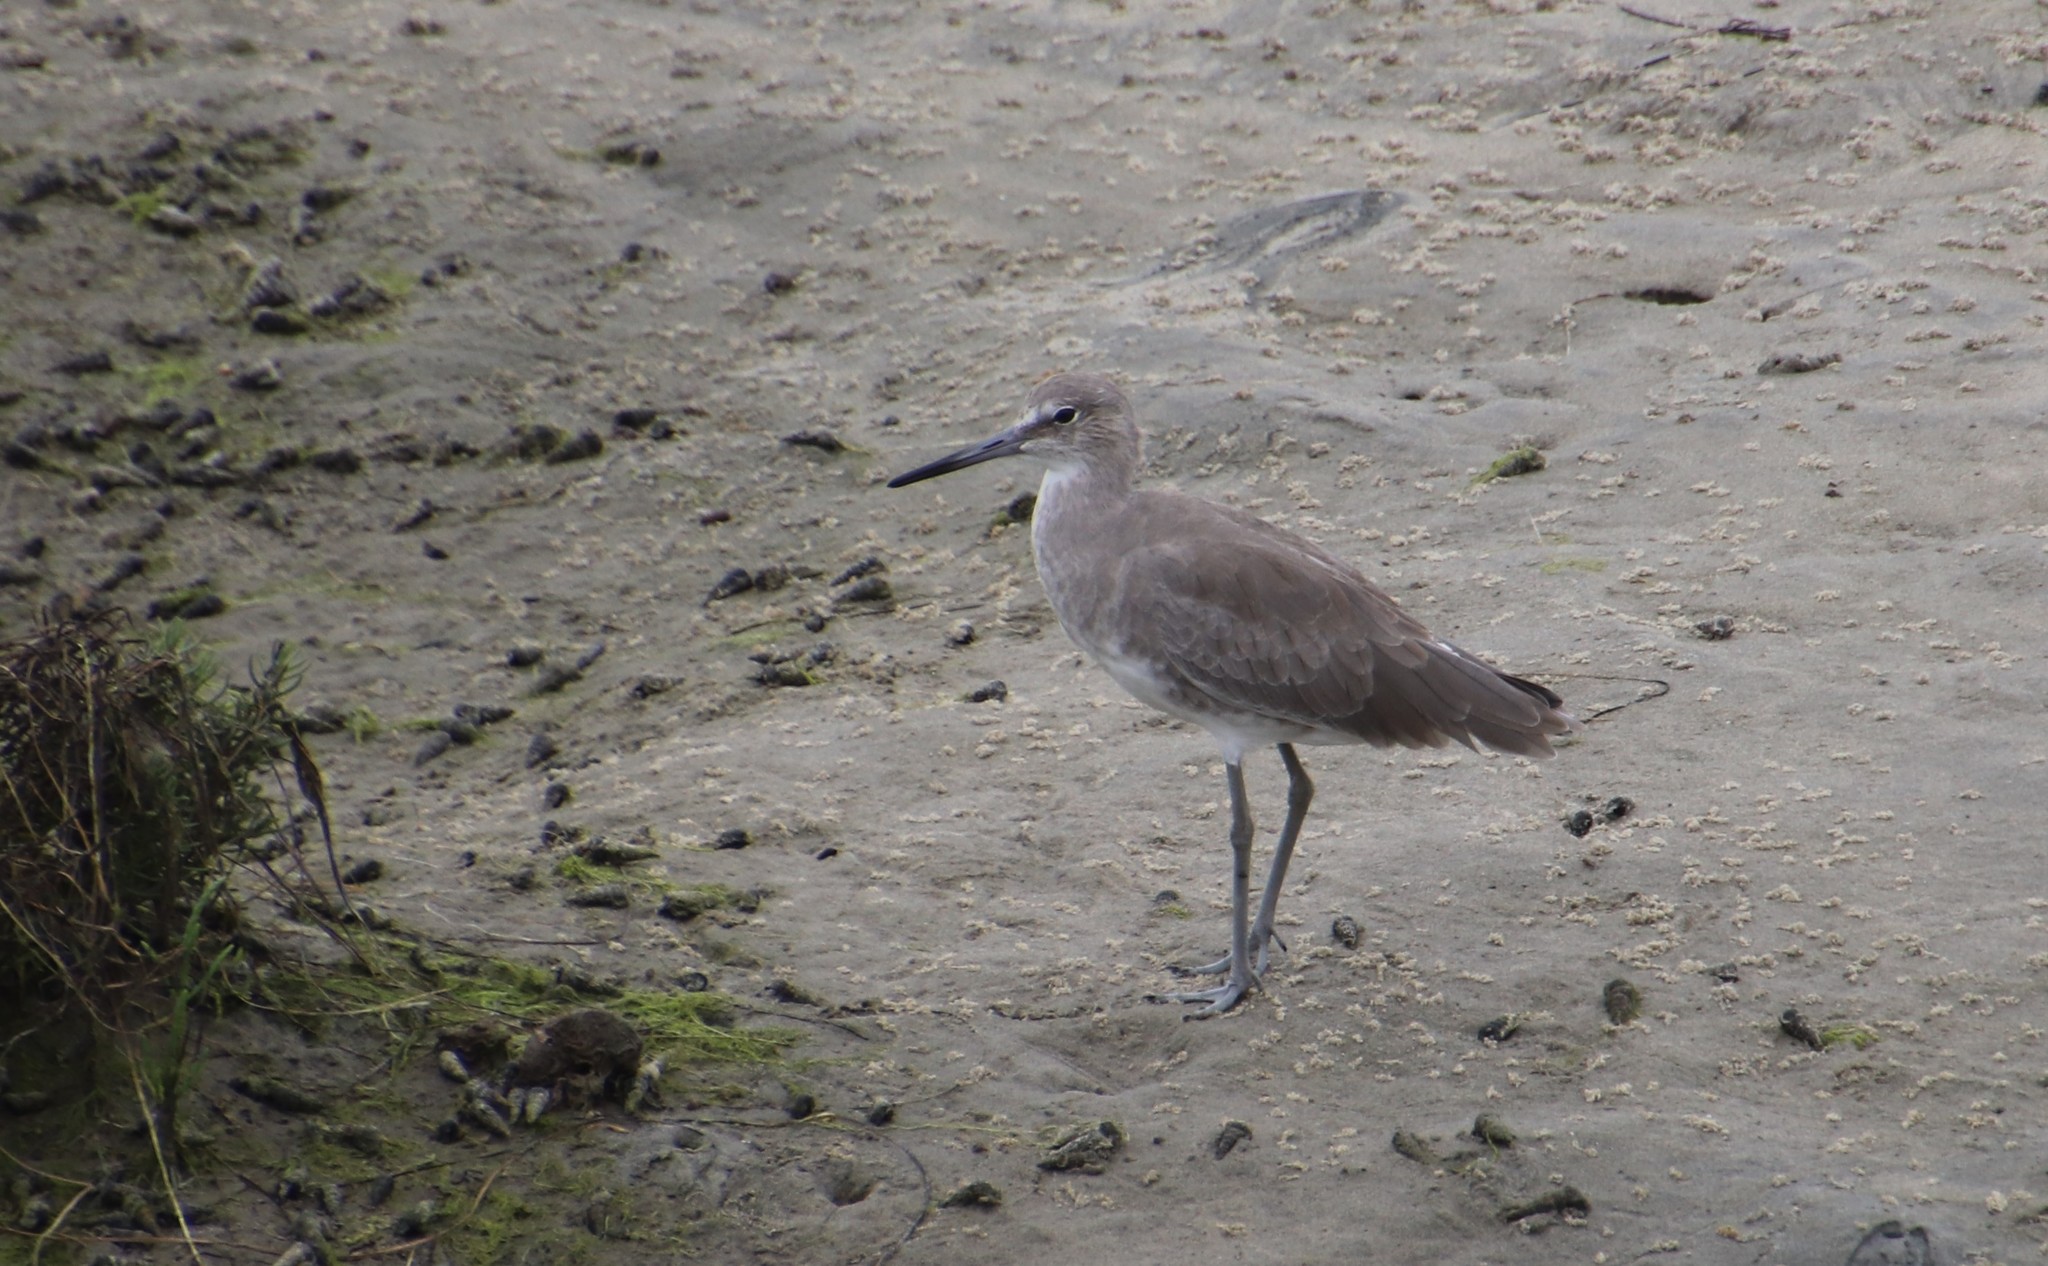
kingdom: Animalia
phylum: Chordata
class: Aves
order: Charadriiformes
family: Scolopacidae
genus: Tringa
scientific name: Tringa semipalmata
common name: Willet
